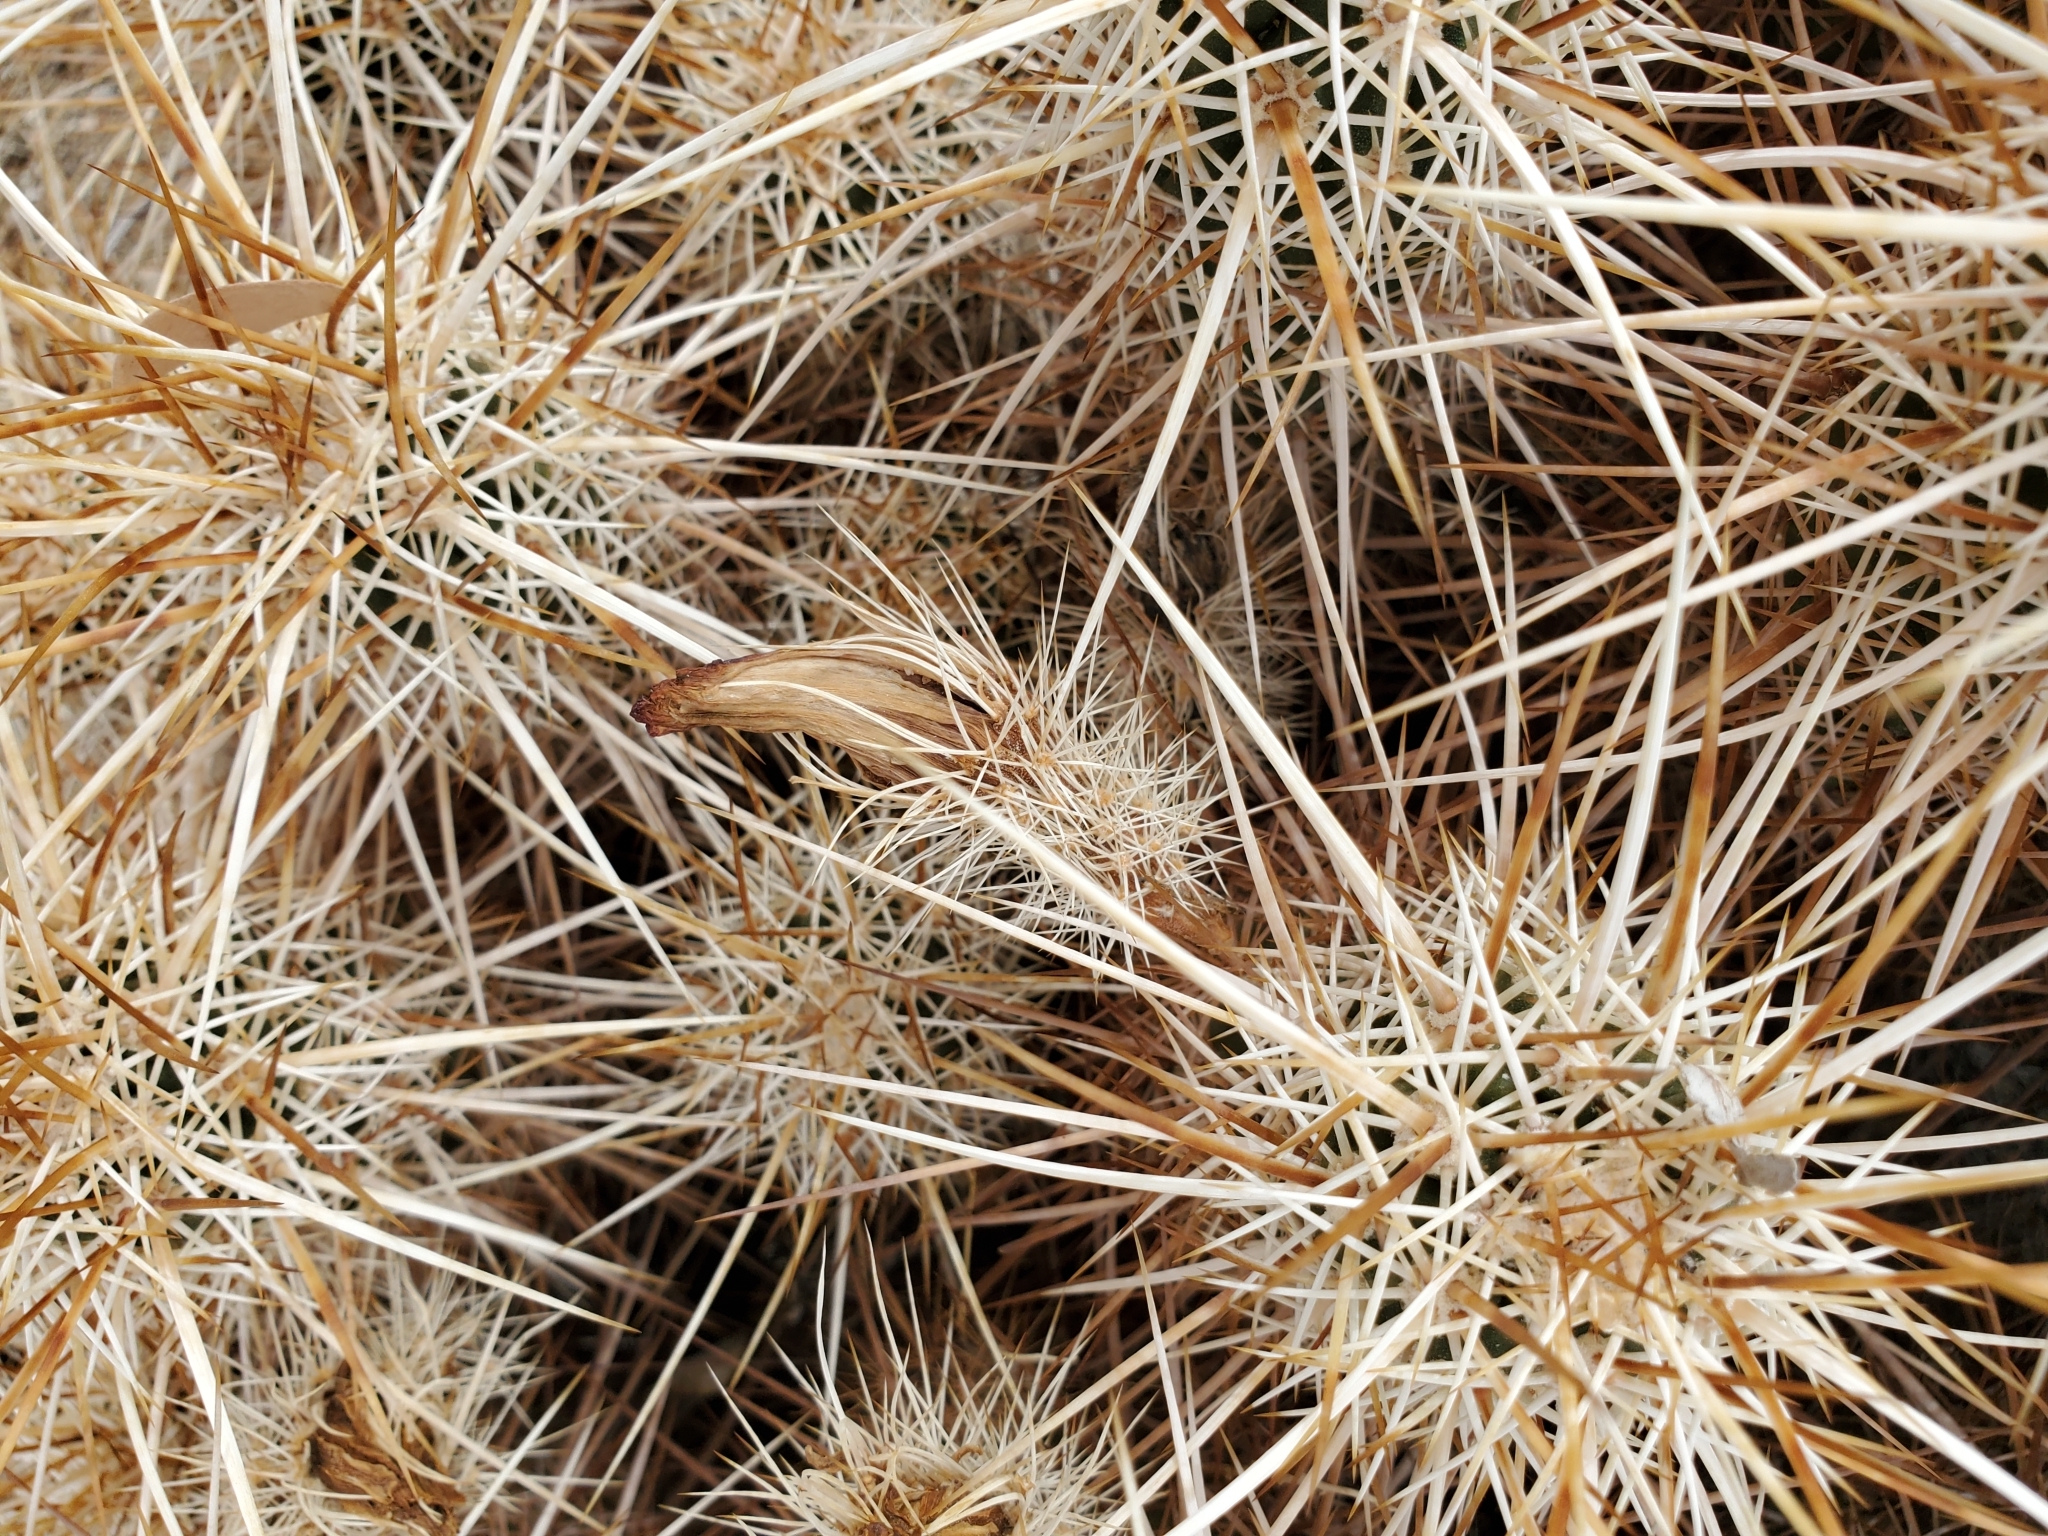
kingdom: Plantae
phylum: Tracheophyta
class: Magnoliopsida
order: Caryophyllales
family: Cactaceae
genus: Echinocereus
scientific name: Echinocereus engelmannii
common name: Engelmann's hedgehog cactus
